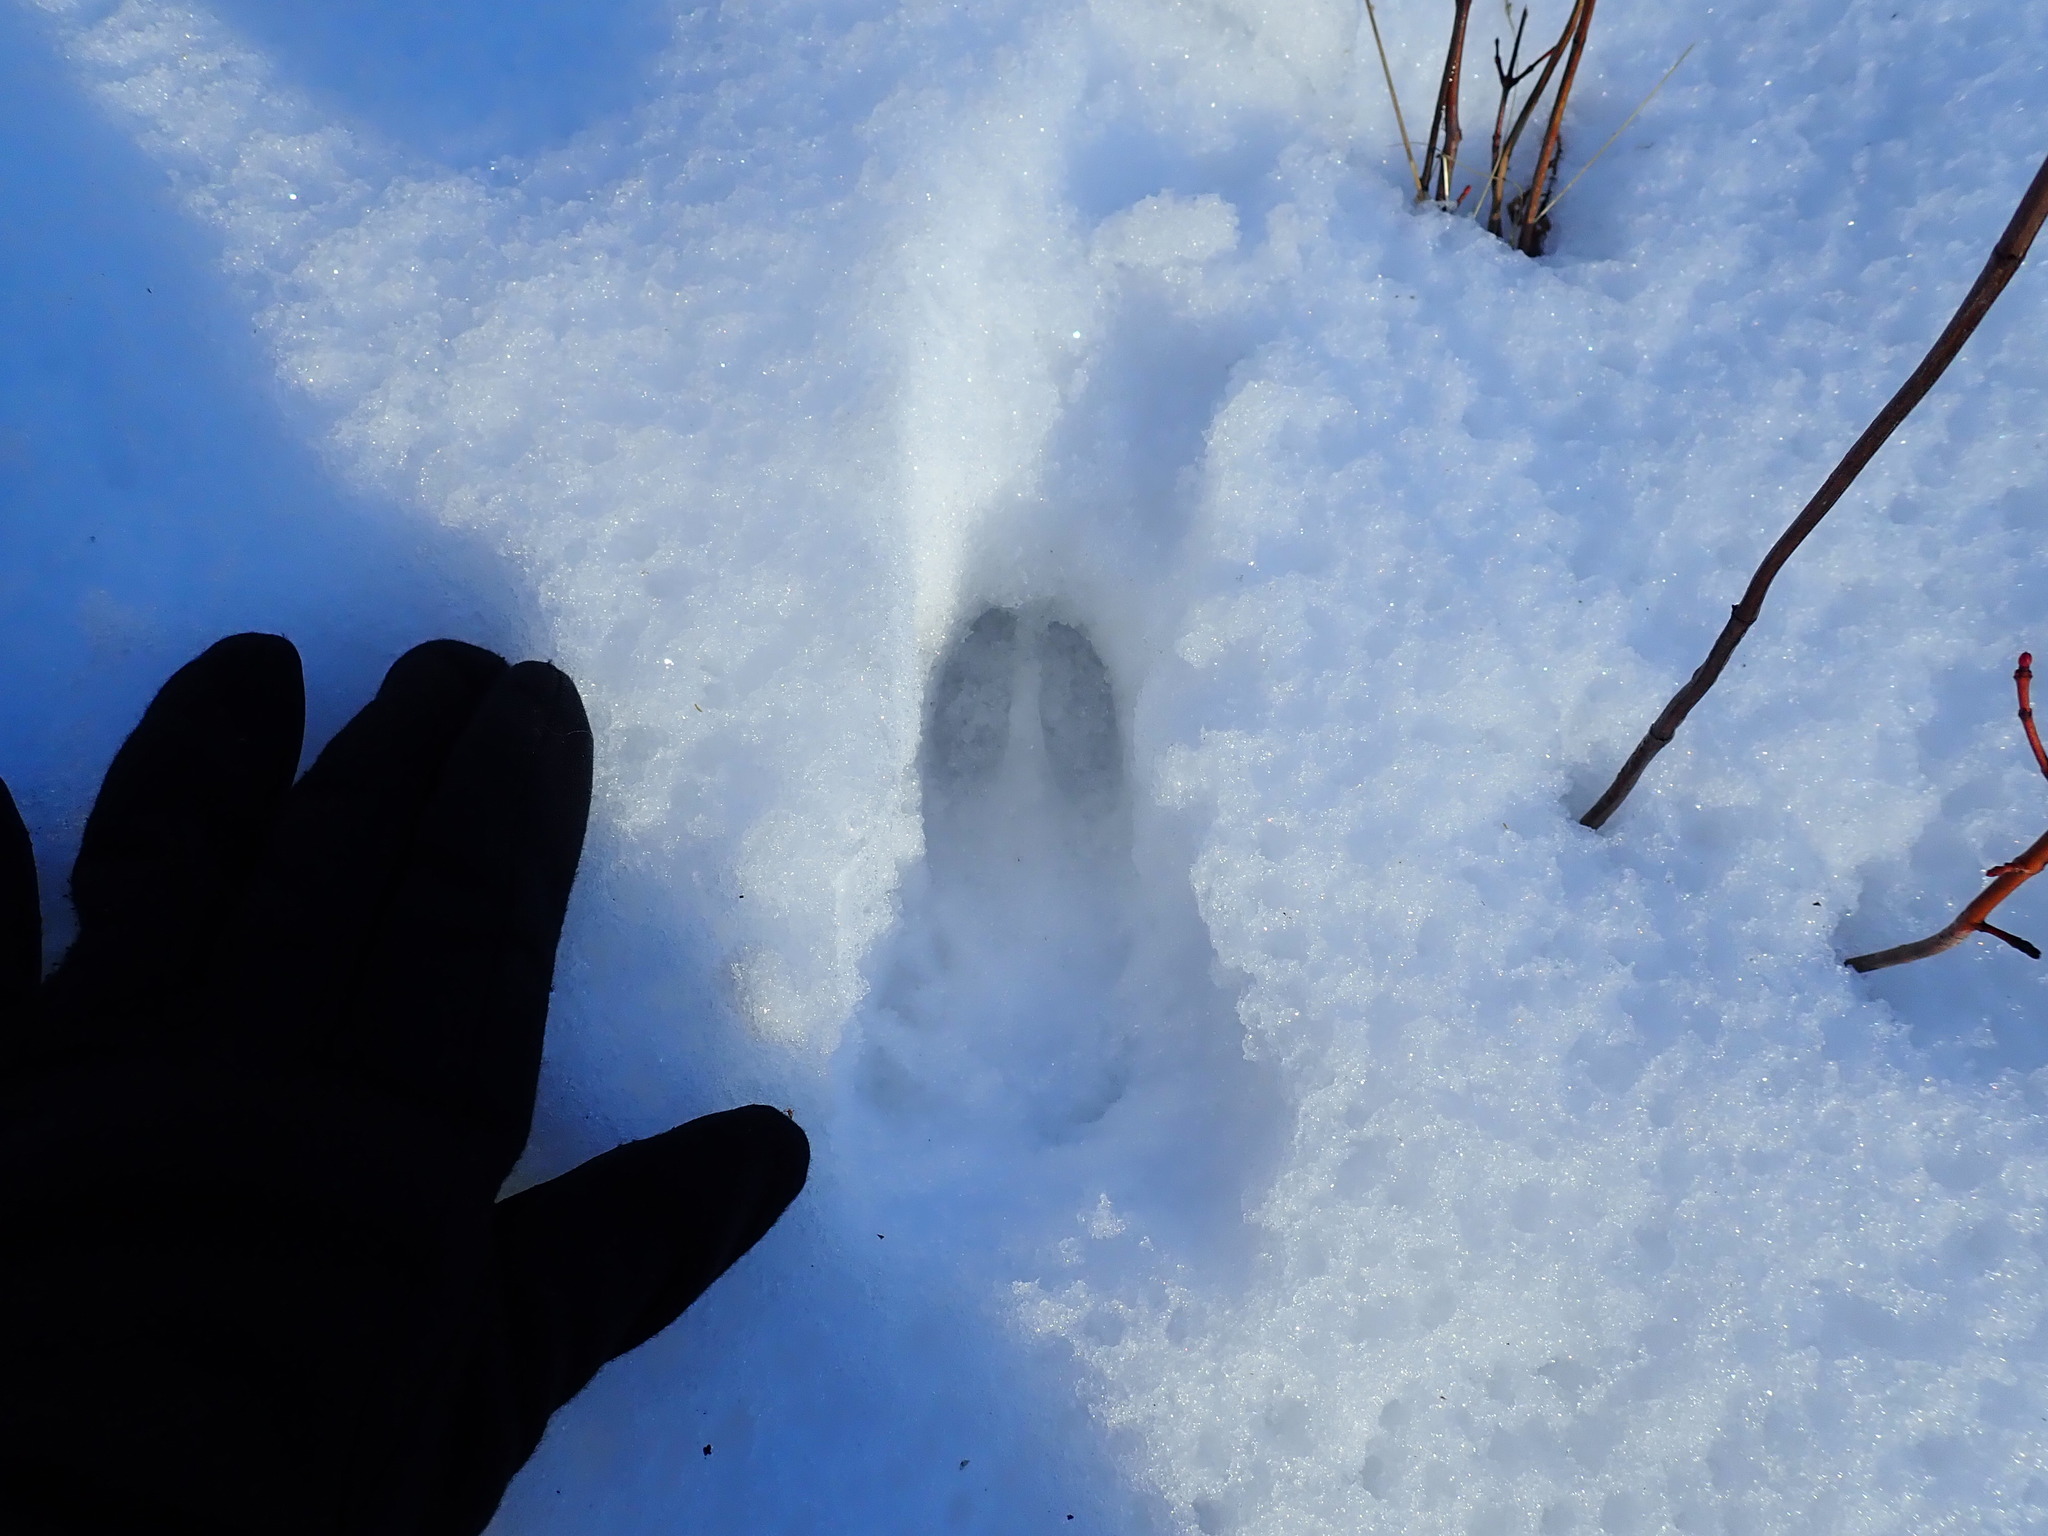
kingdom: Animalia
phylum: Chordata
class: Mammalia
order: Artiodactyla
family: Cervidae
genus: Odocoileus
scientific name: Odocoileus virginianus
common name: White-tailed deer
